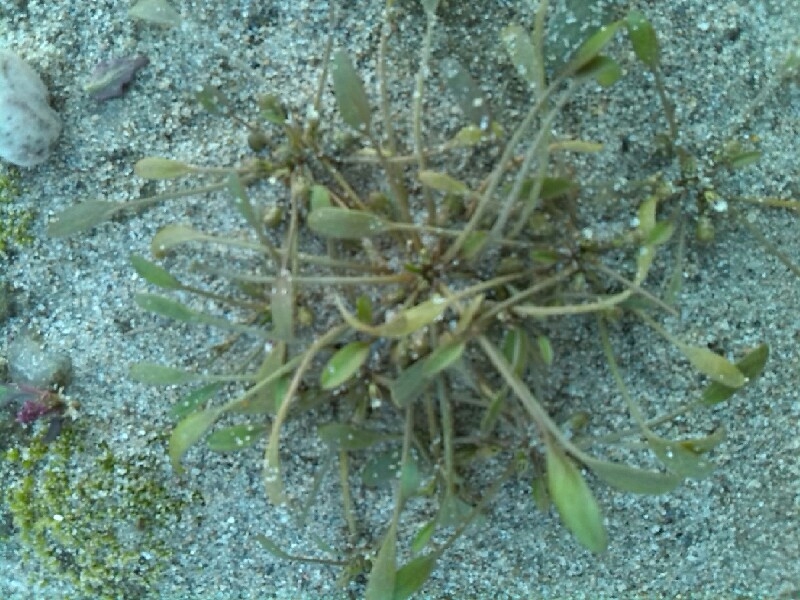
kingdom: Plantae
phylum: Tracheophyta
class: Magnoliopsida
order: Lamiales
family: Scrophulariaceae
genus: Limosella
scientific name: Limosella aquatica
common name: Mudwort
